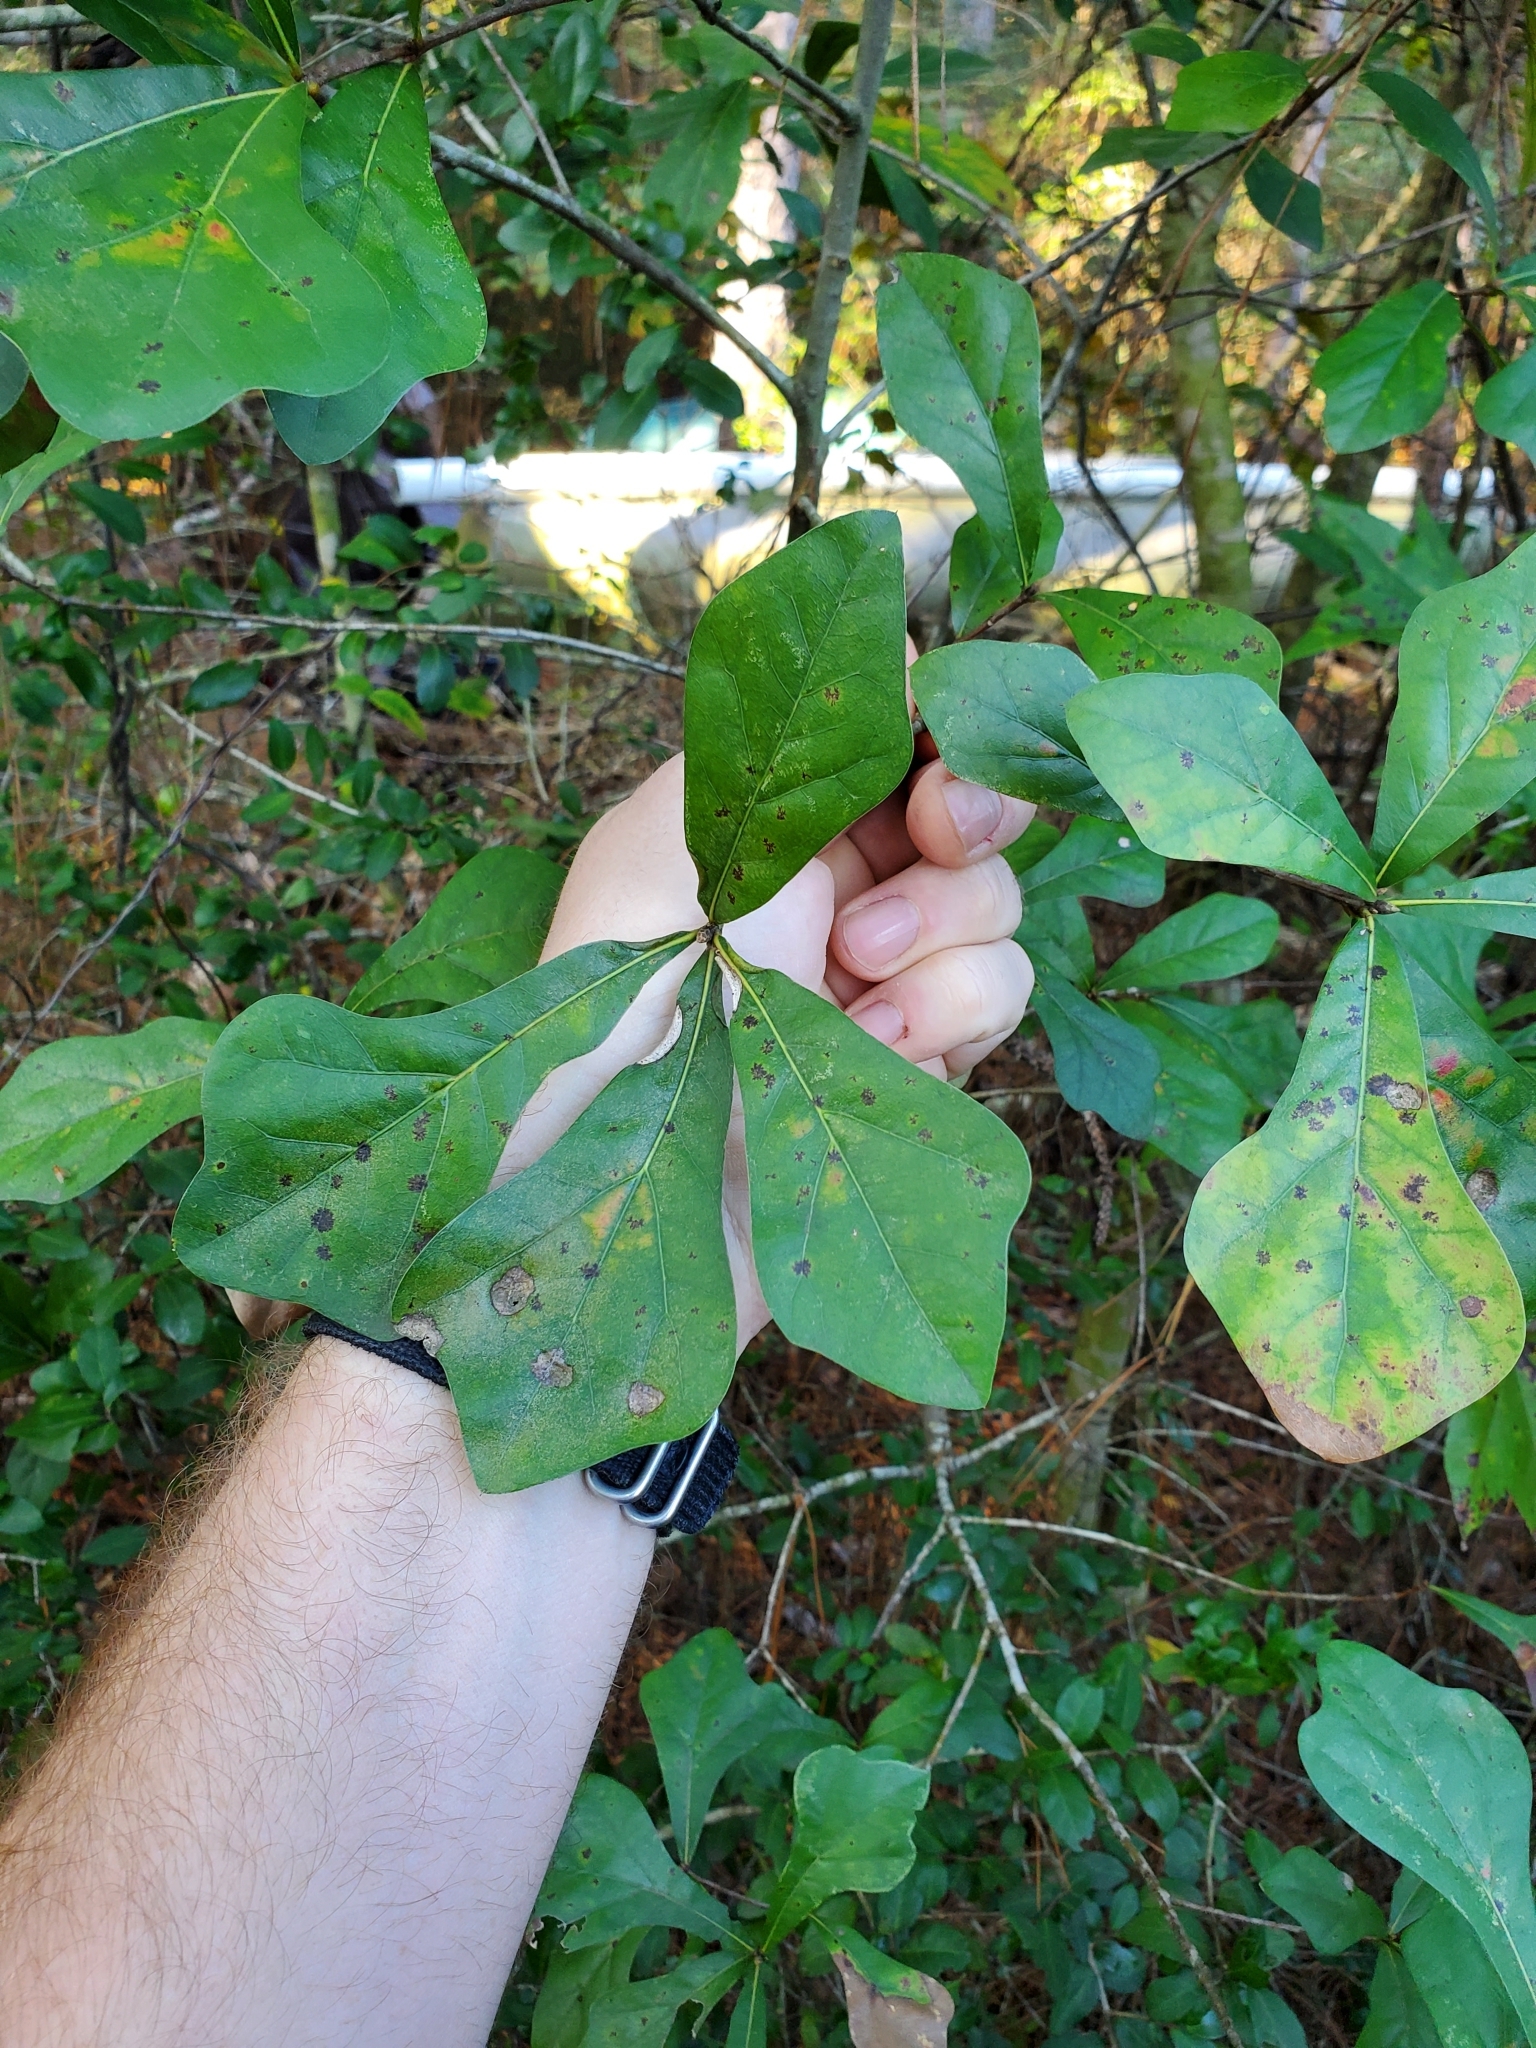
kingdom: Plantae
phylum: Tracheophyta
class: Magnoliopsida
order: Fagales
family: Fagaceae
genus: Quercus
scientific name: Quercus nigra
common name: Water oak
